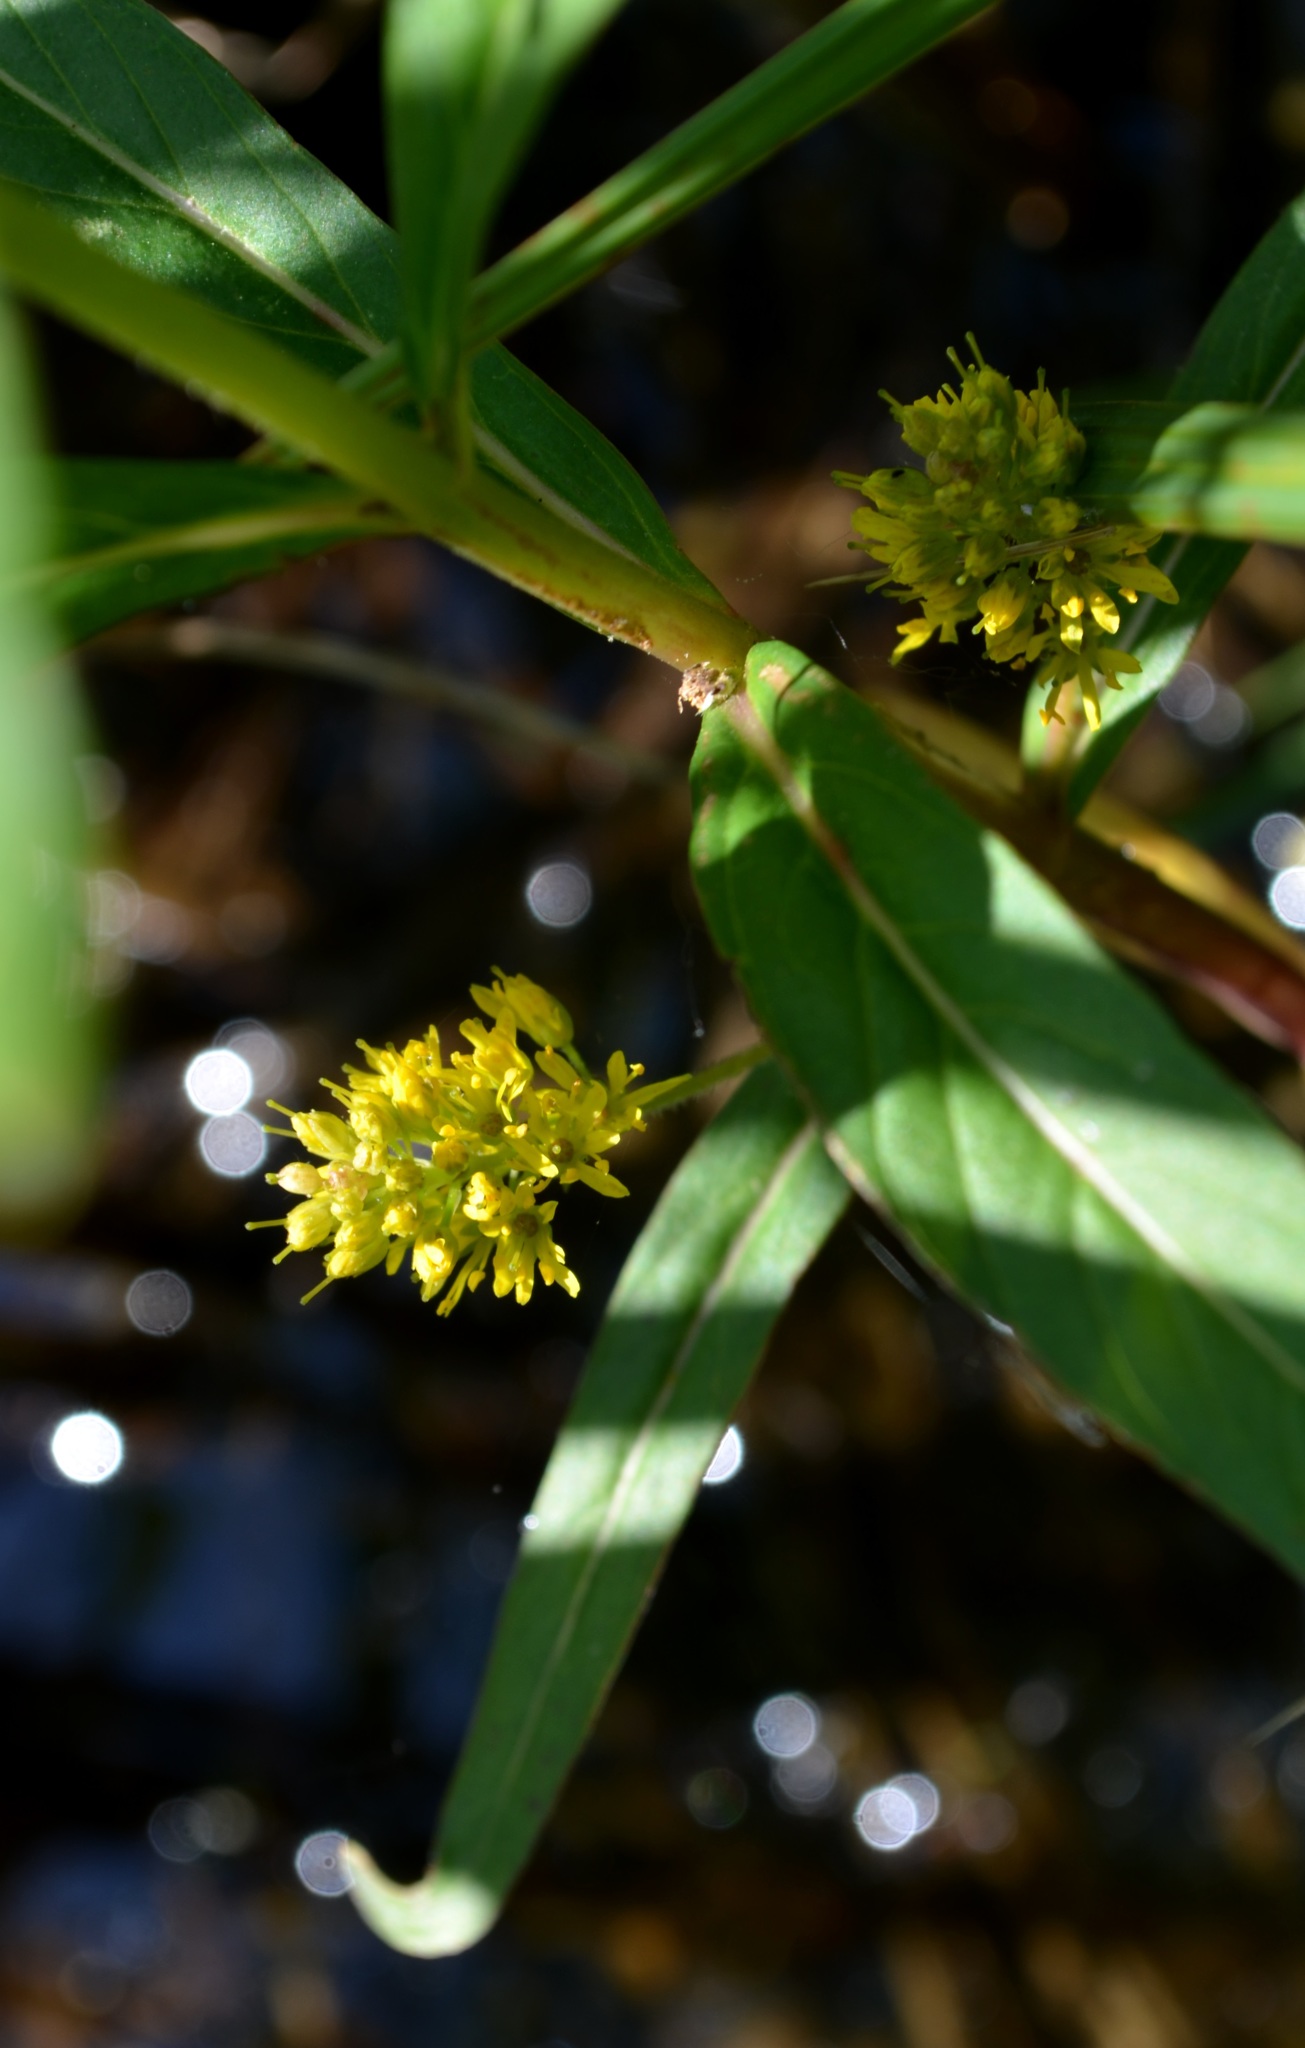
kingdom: Plantae
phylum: Tracheophyta
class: Magnoliopsida
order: Ericales
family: Primulaceae
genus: Lysimachia
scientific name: Lysimachia thyrsiflora
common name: Tufted loosestrife
